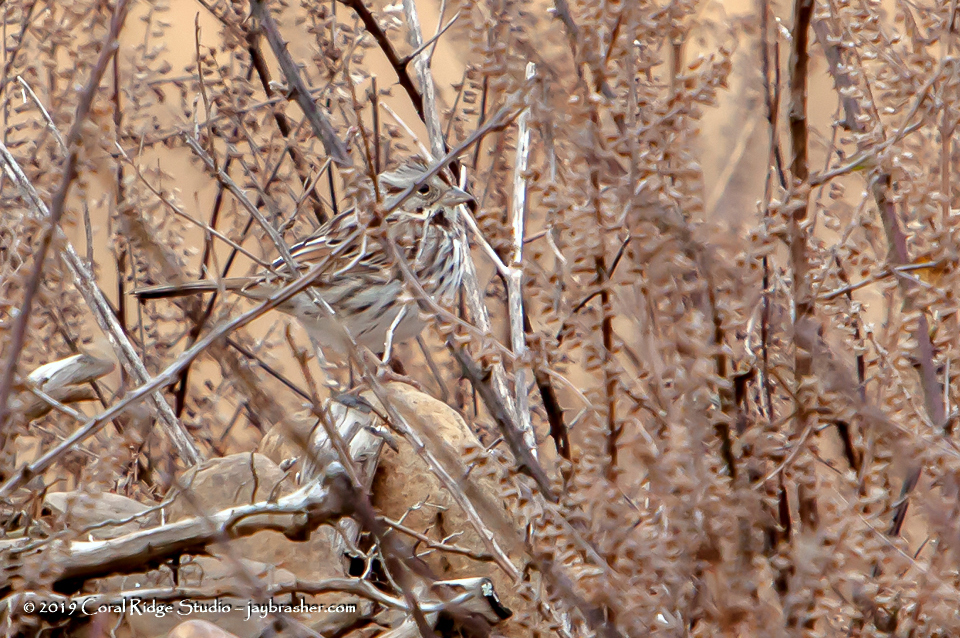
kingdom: Animalia
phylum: Chordata
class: Aves
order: Passeriformes
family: Passerellidae
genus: Melospiza
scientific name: Melospiza melodia
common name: Song sparrow
